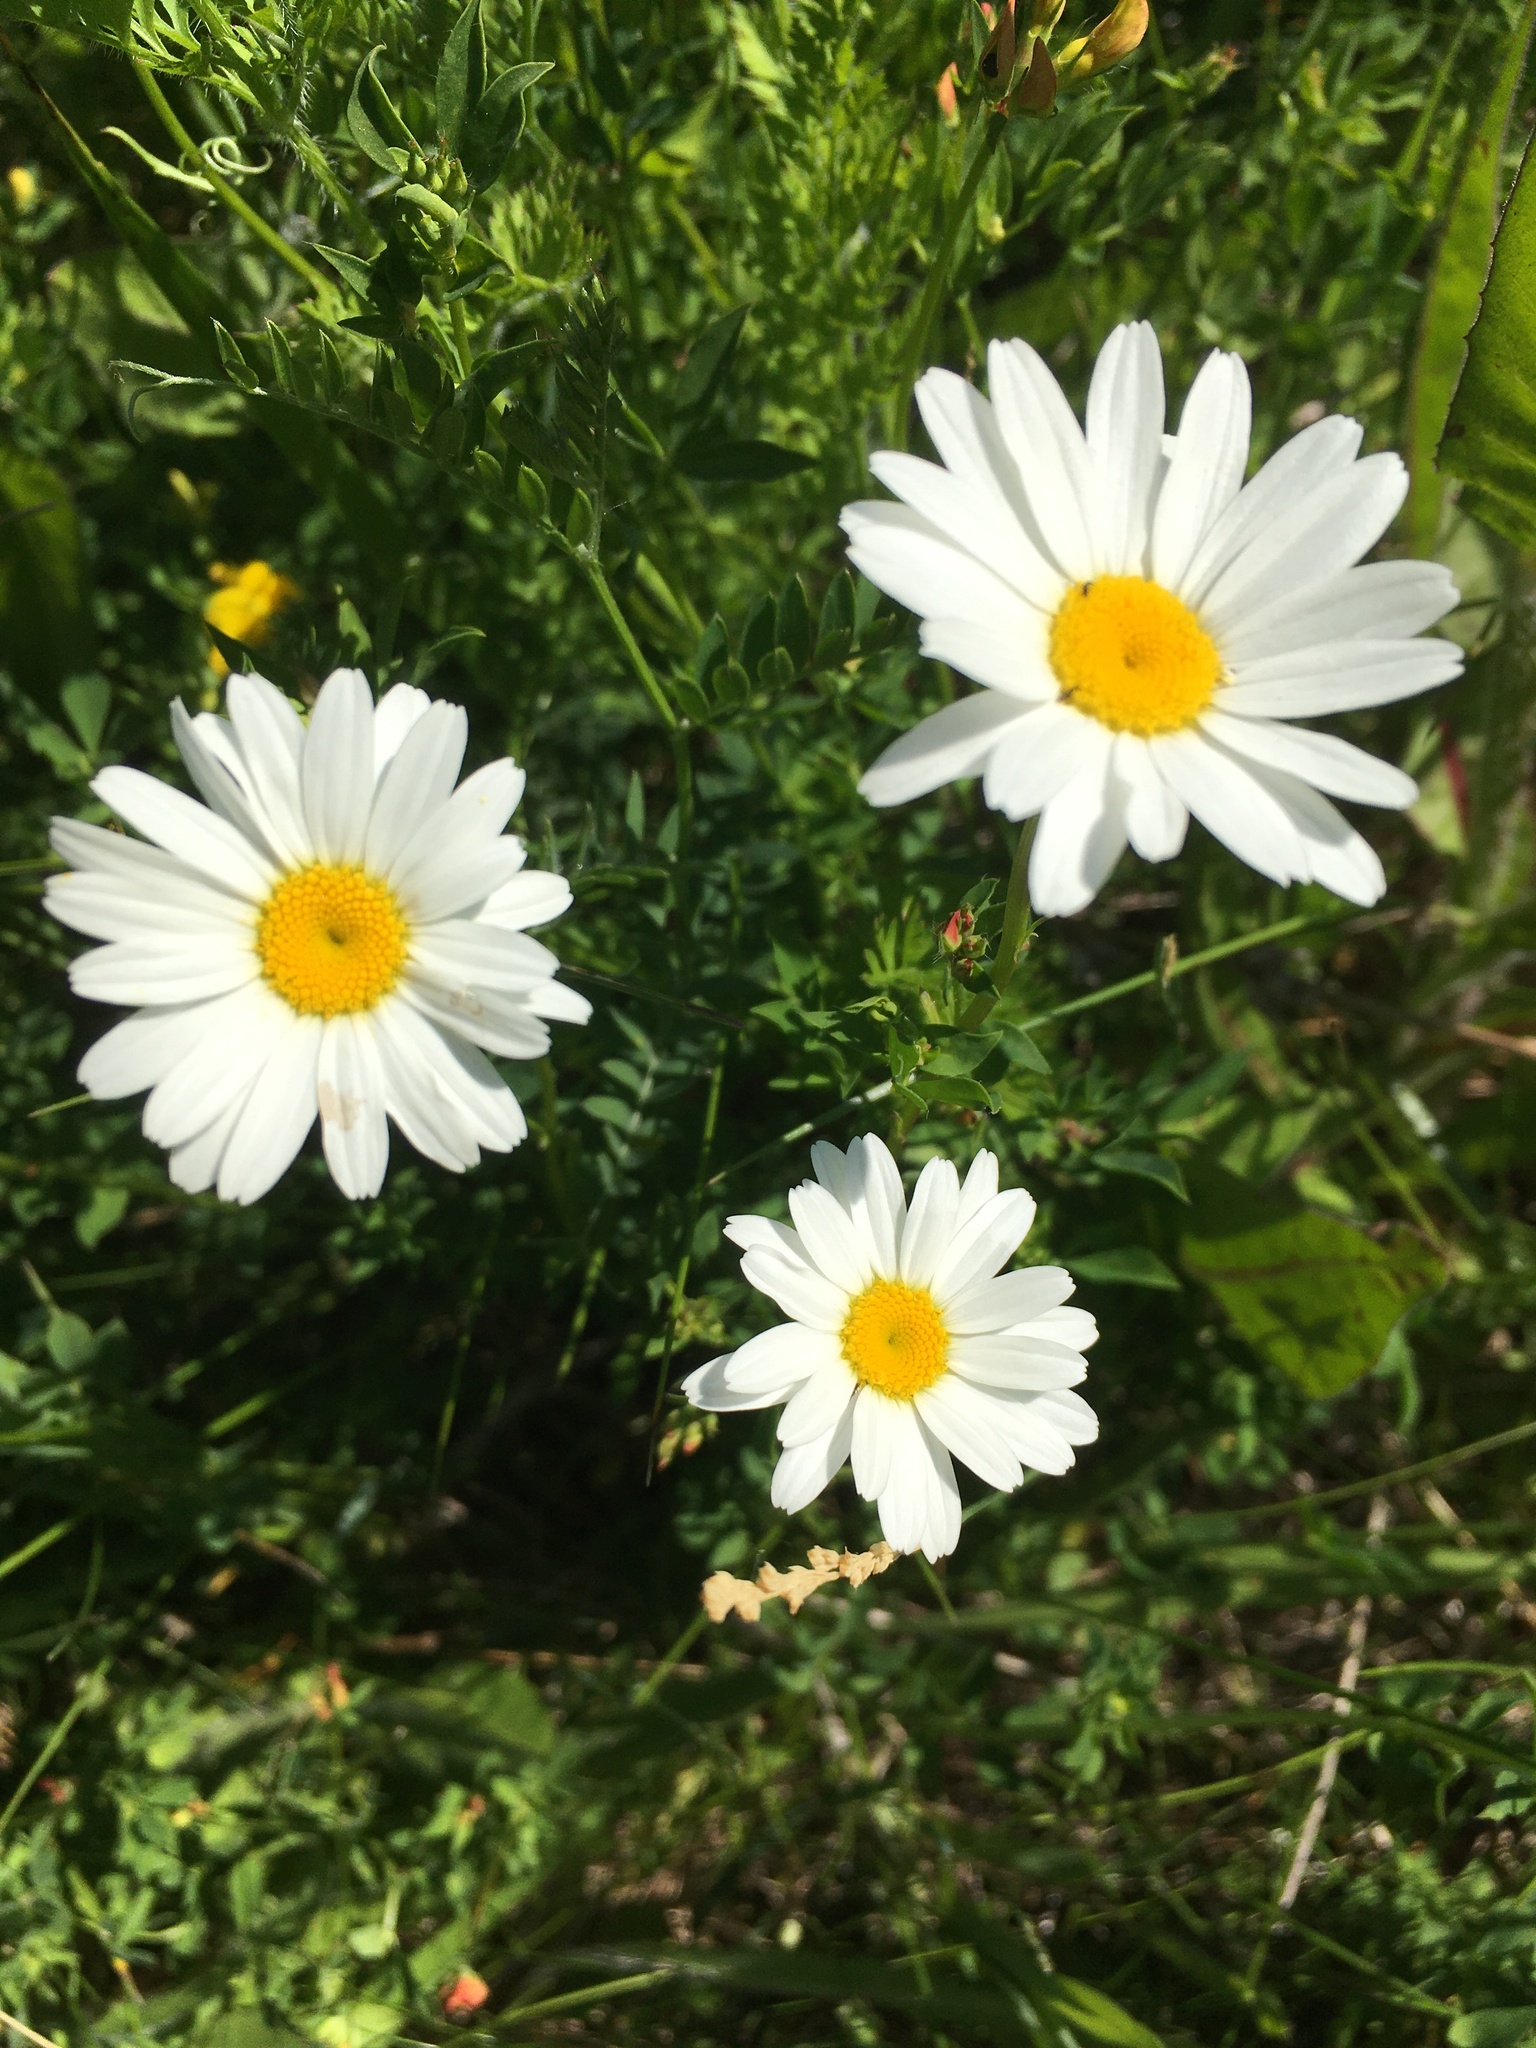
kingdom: Plantae
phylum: Tracheophyta
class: Magnoliopsida
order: Asterales
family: Asteraceae
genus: Leucanthemum
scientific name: Leucanthemum vulgare
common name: Oxeye daisy
